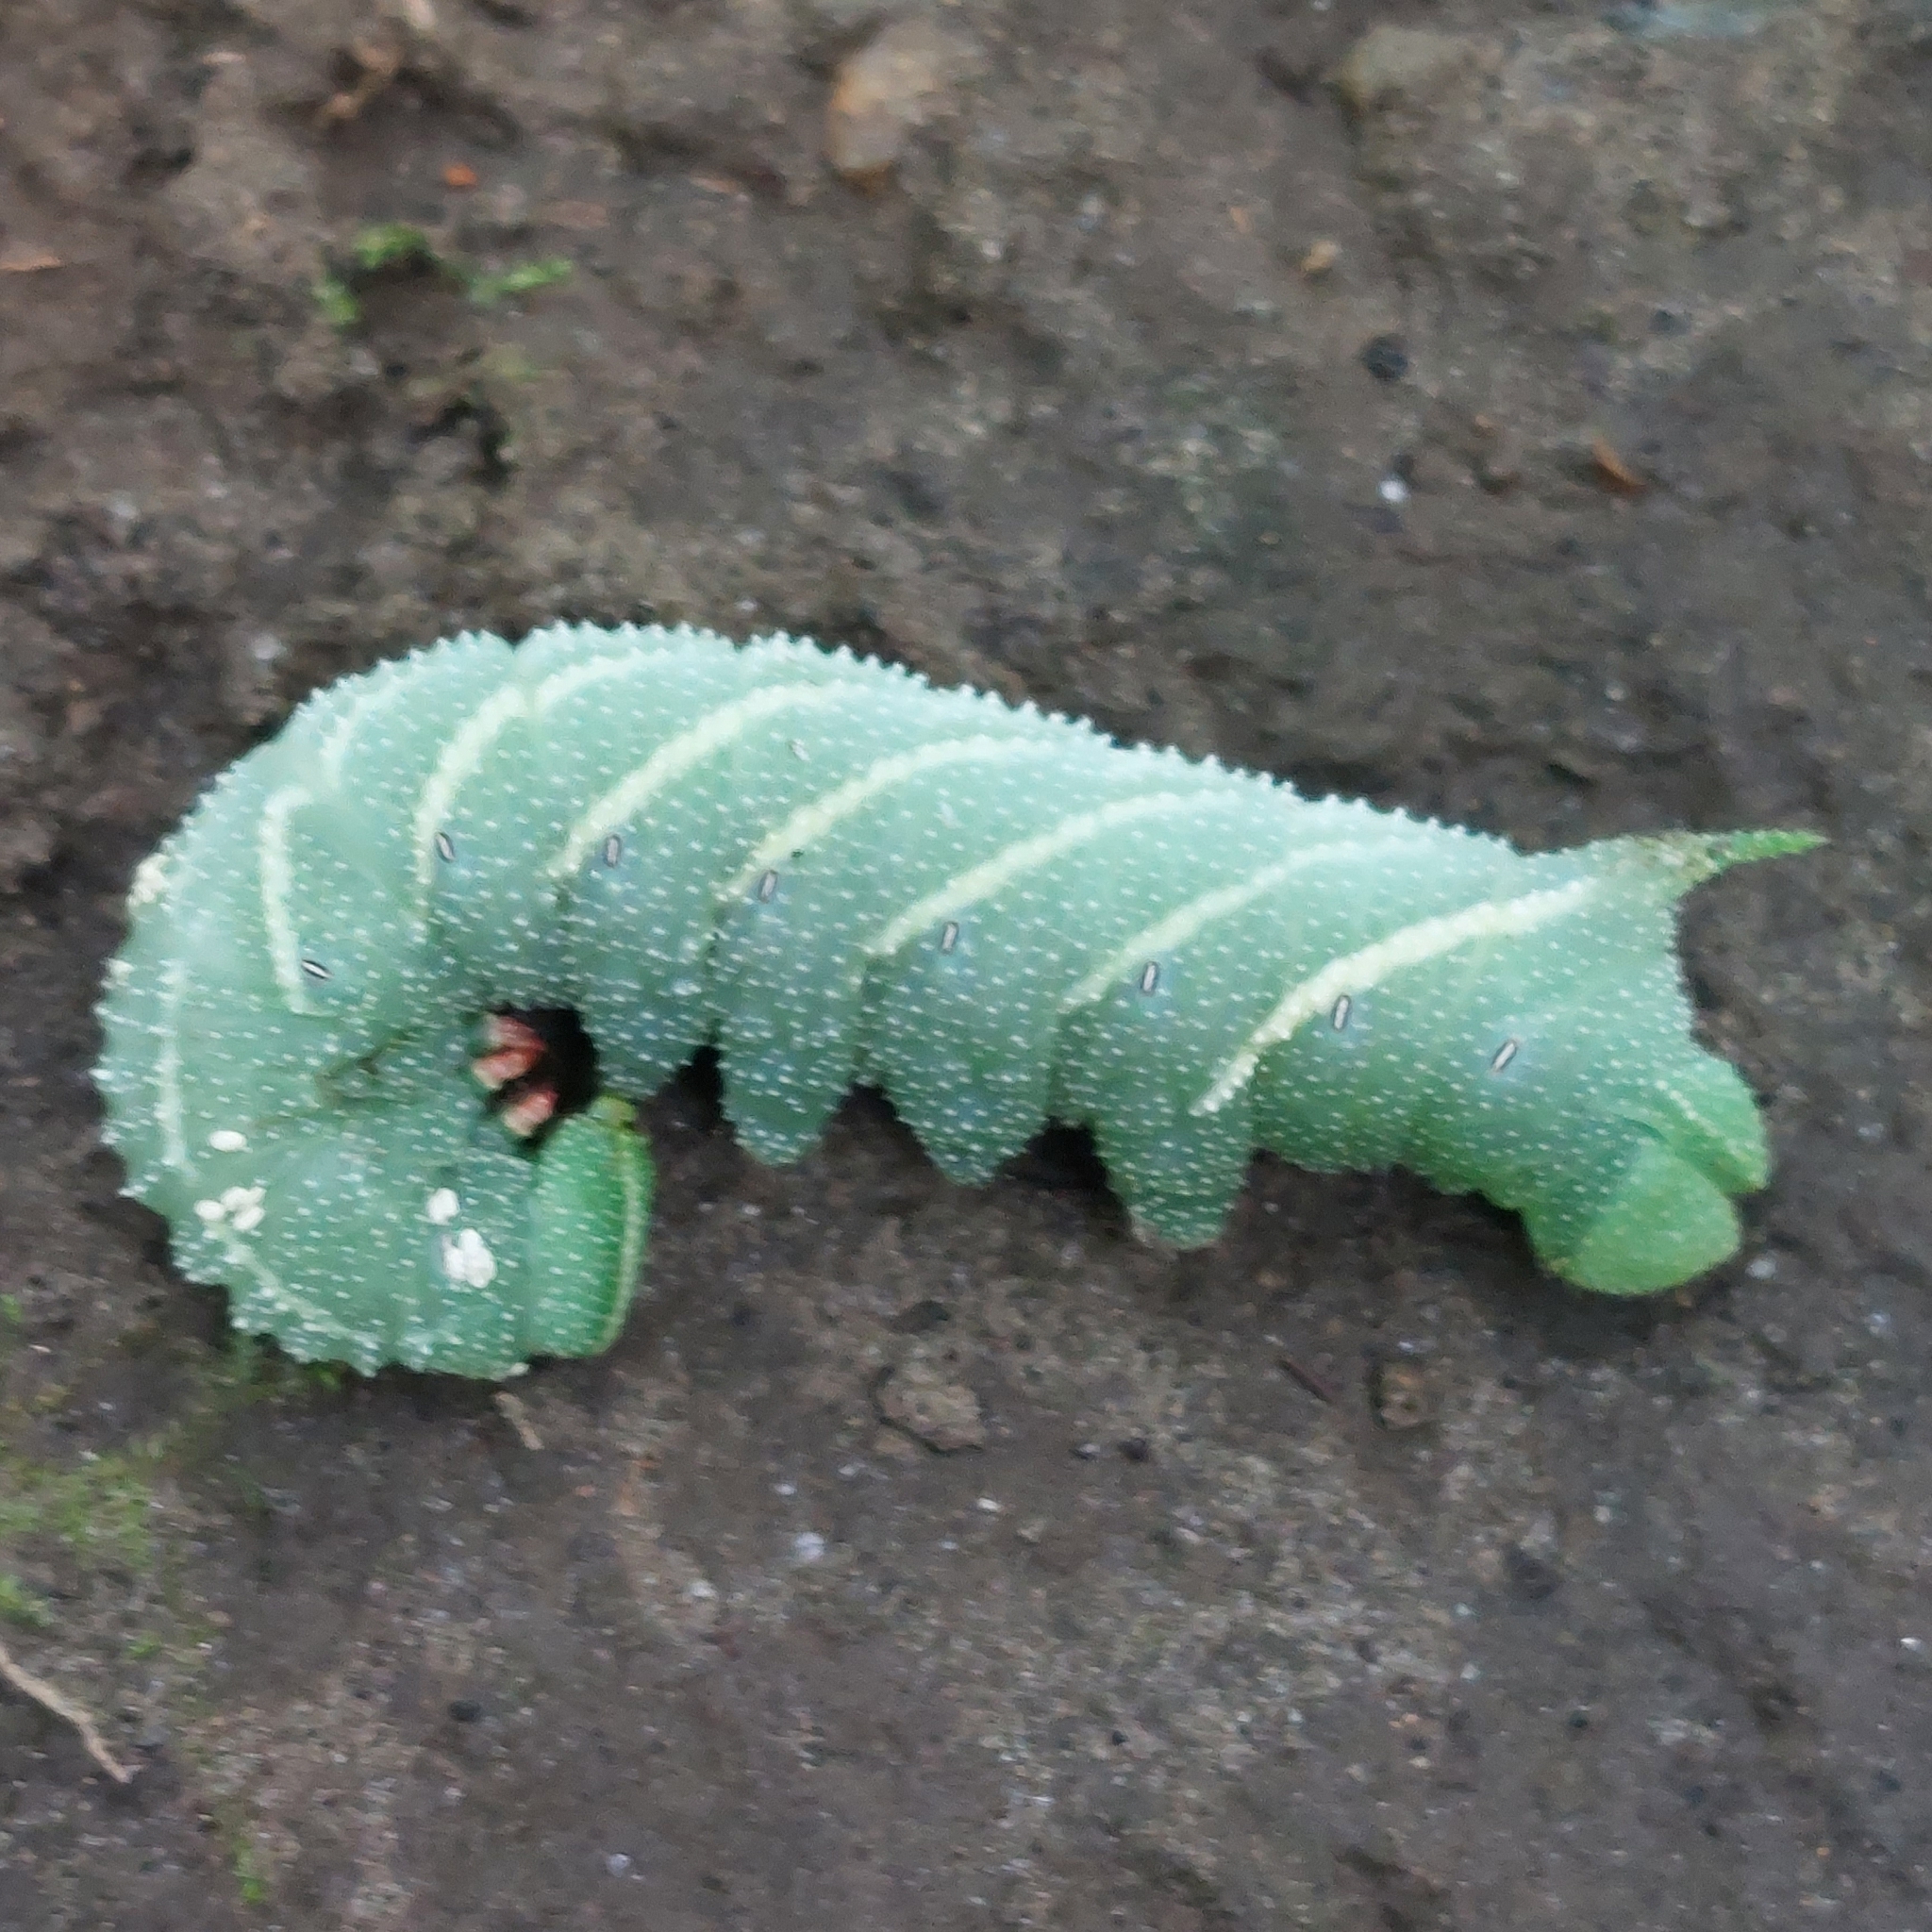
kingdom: Animalia
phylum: Arthropoda
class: Insecta
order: Lepidoptera
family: Sphingidae
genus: Paonias
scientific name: Paonias excaecata
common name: Blind-eyed sphinx
